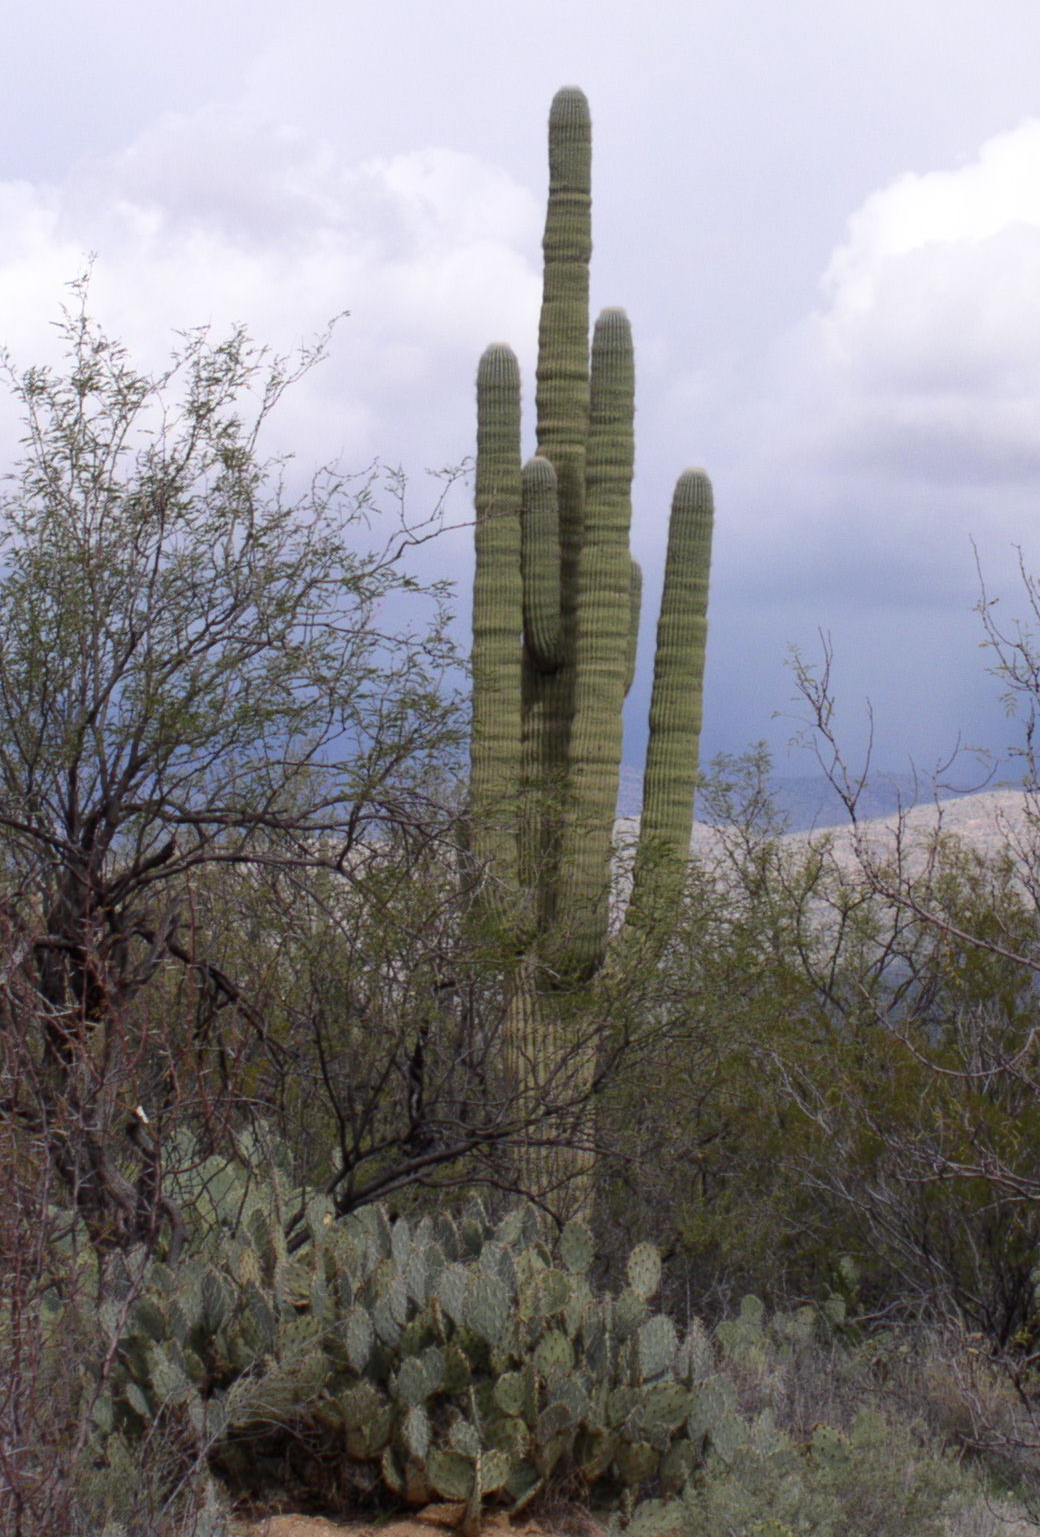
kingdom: Plantae
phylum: Tracheophyta
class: Magnoliopsida
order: Caryophyllales
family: Cactaceae
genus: Carnegiea
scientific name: Carnegiea gigantea
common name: Saguaro
